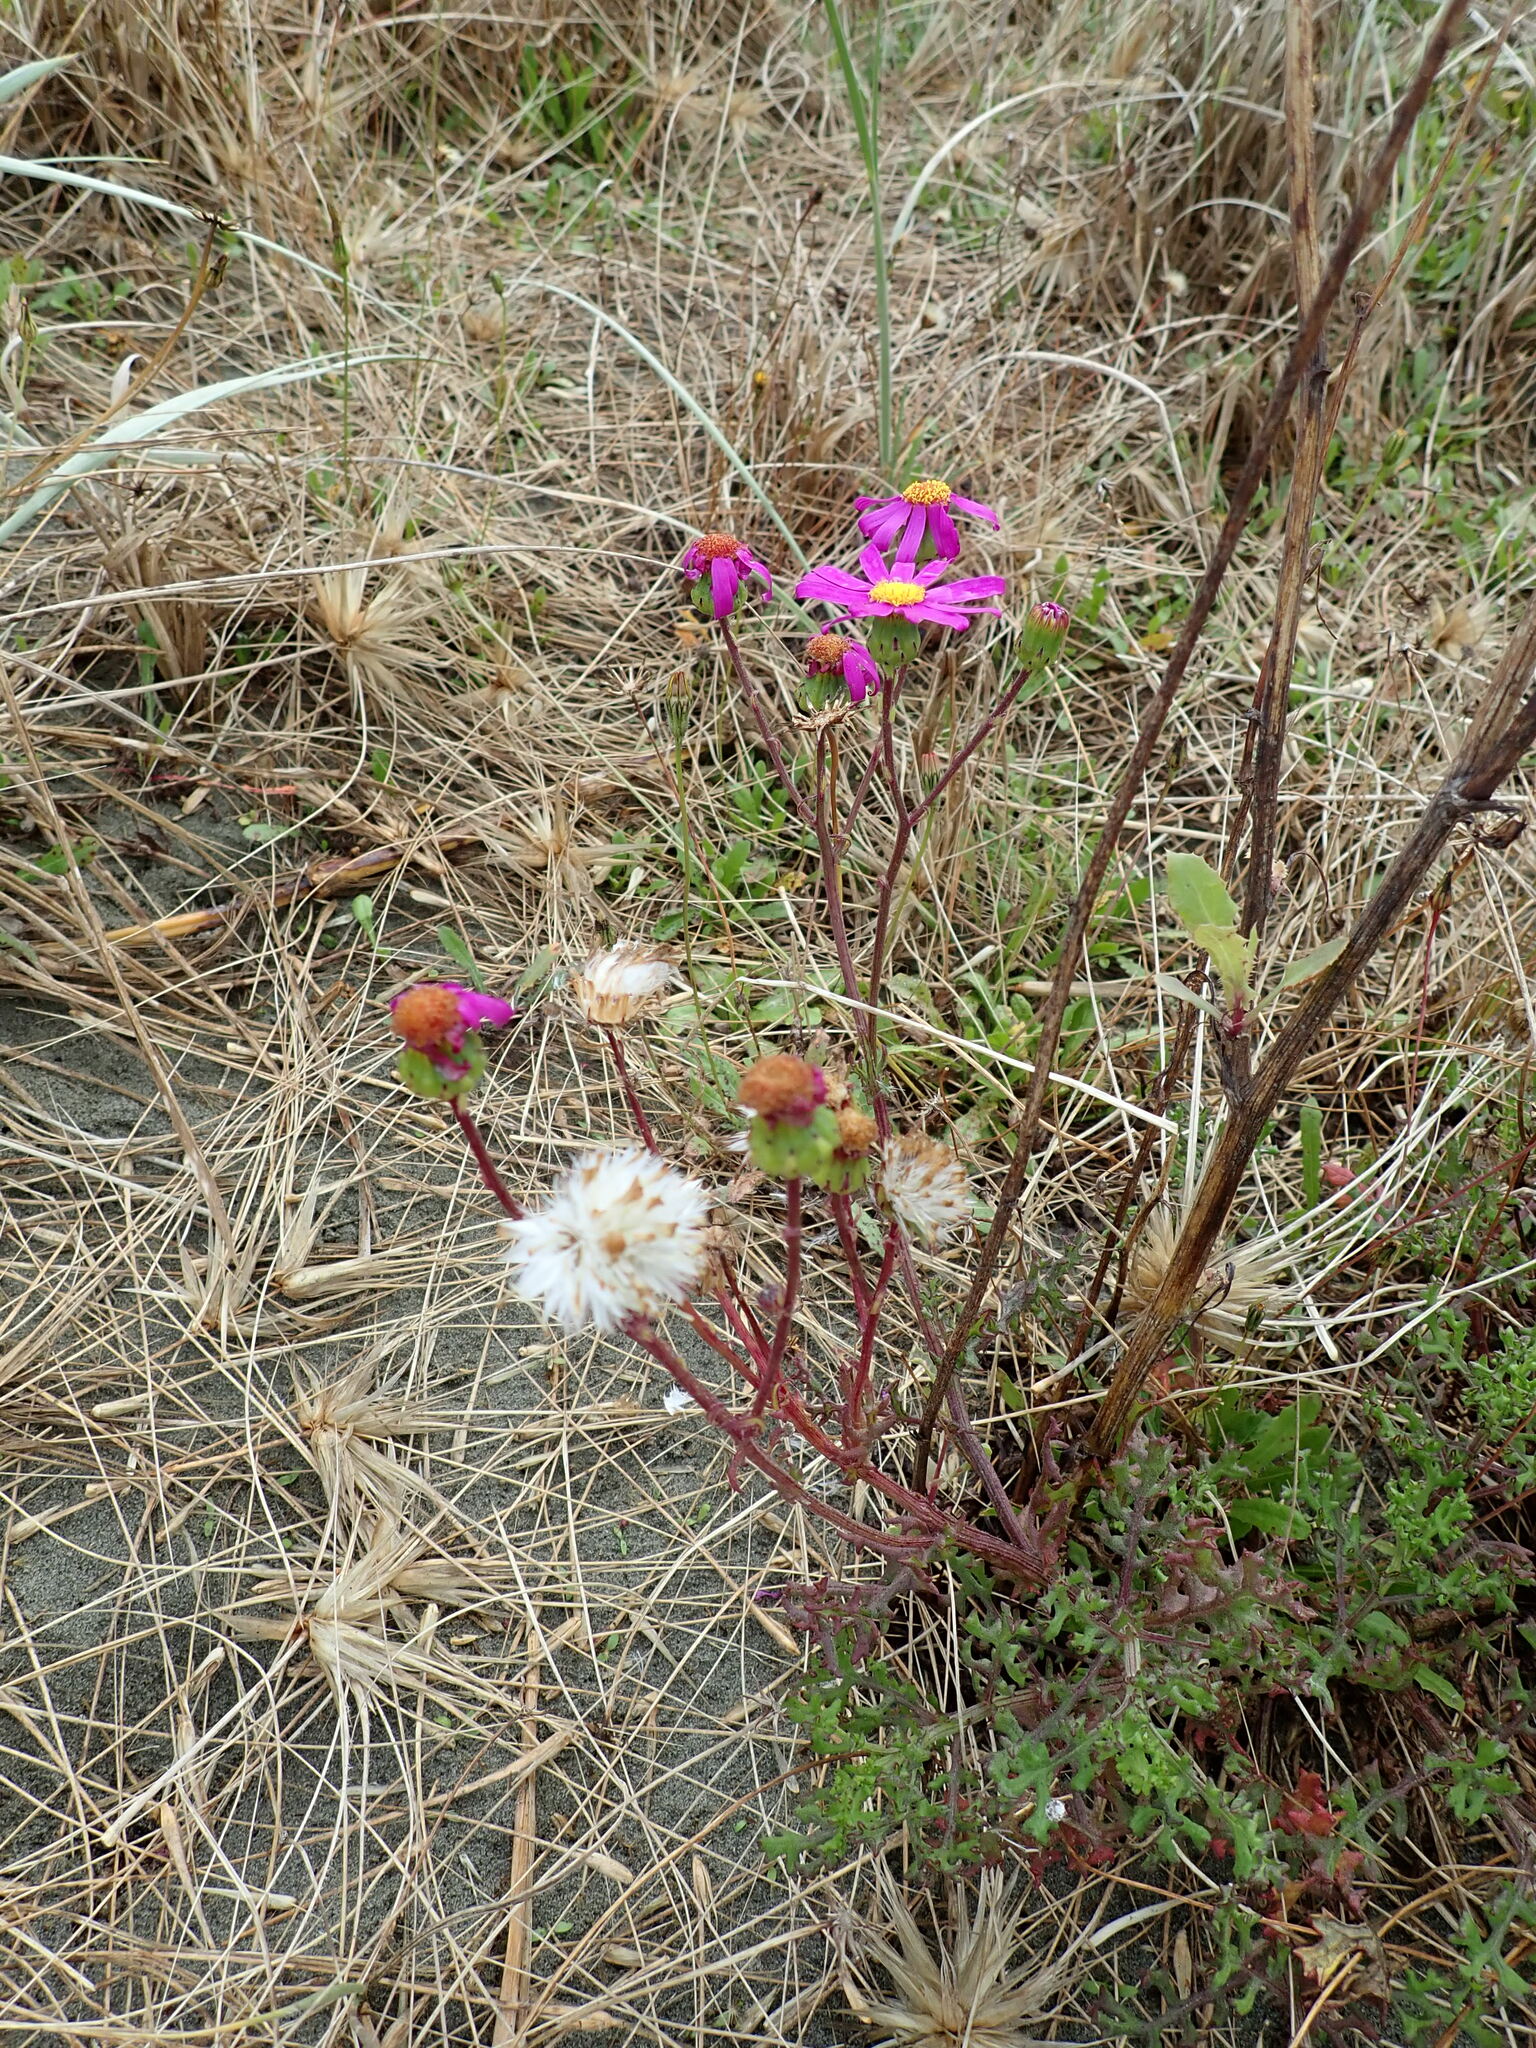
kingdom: Plantae
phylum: Tracheophyta
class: Magnoliopsida
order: Asterales
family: Asteraceae
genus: Senecio
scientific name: Senecio elegans
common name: Purple groundsel
